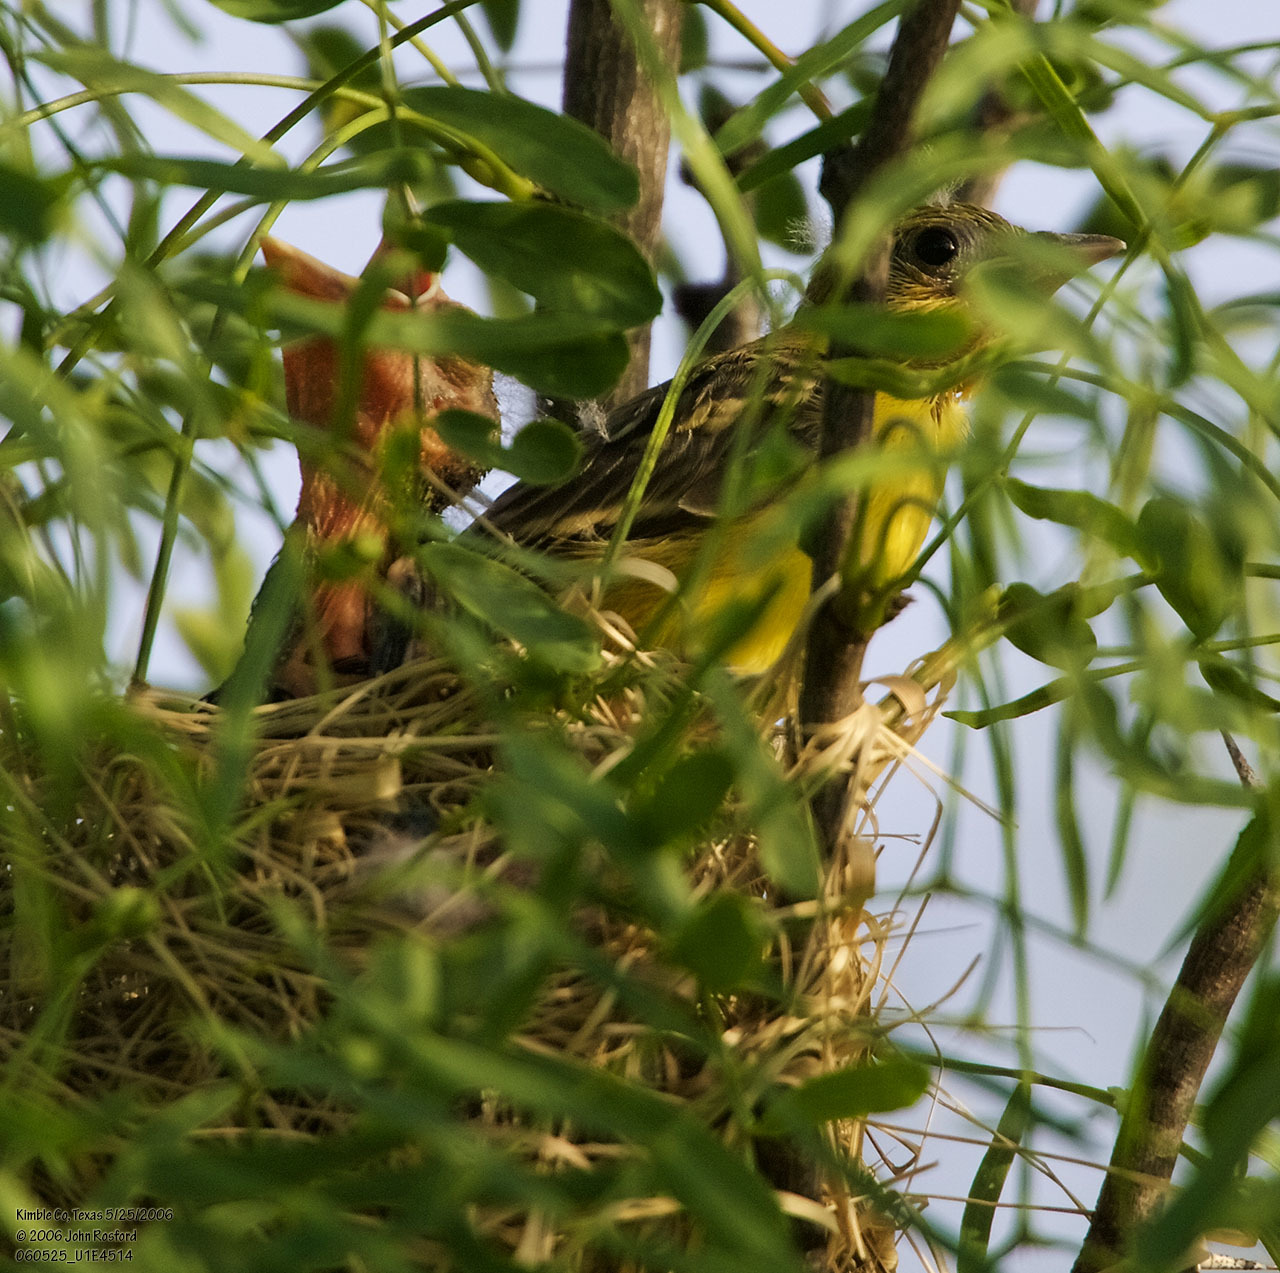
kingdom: Animalia
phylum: Chordata
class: Aves
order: Passeriformes
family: Icteridae
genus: Icterus
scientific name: Icterus spurius
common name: Orchard oriole
